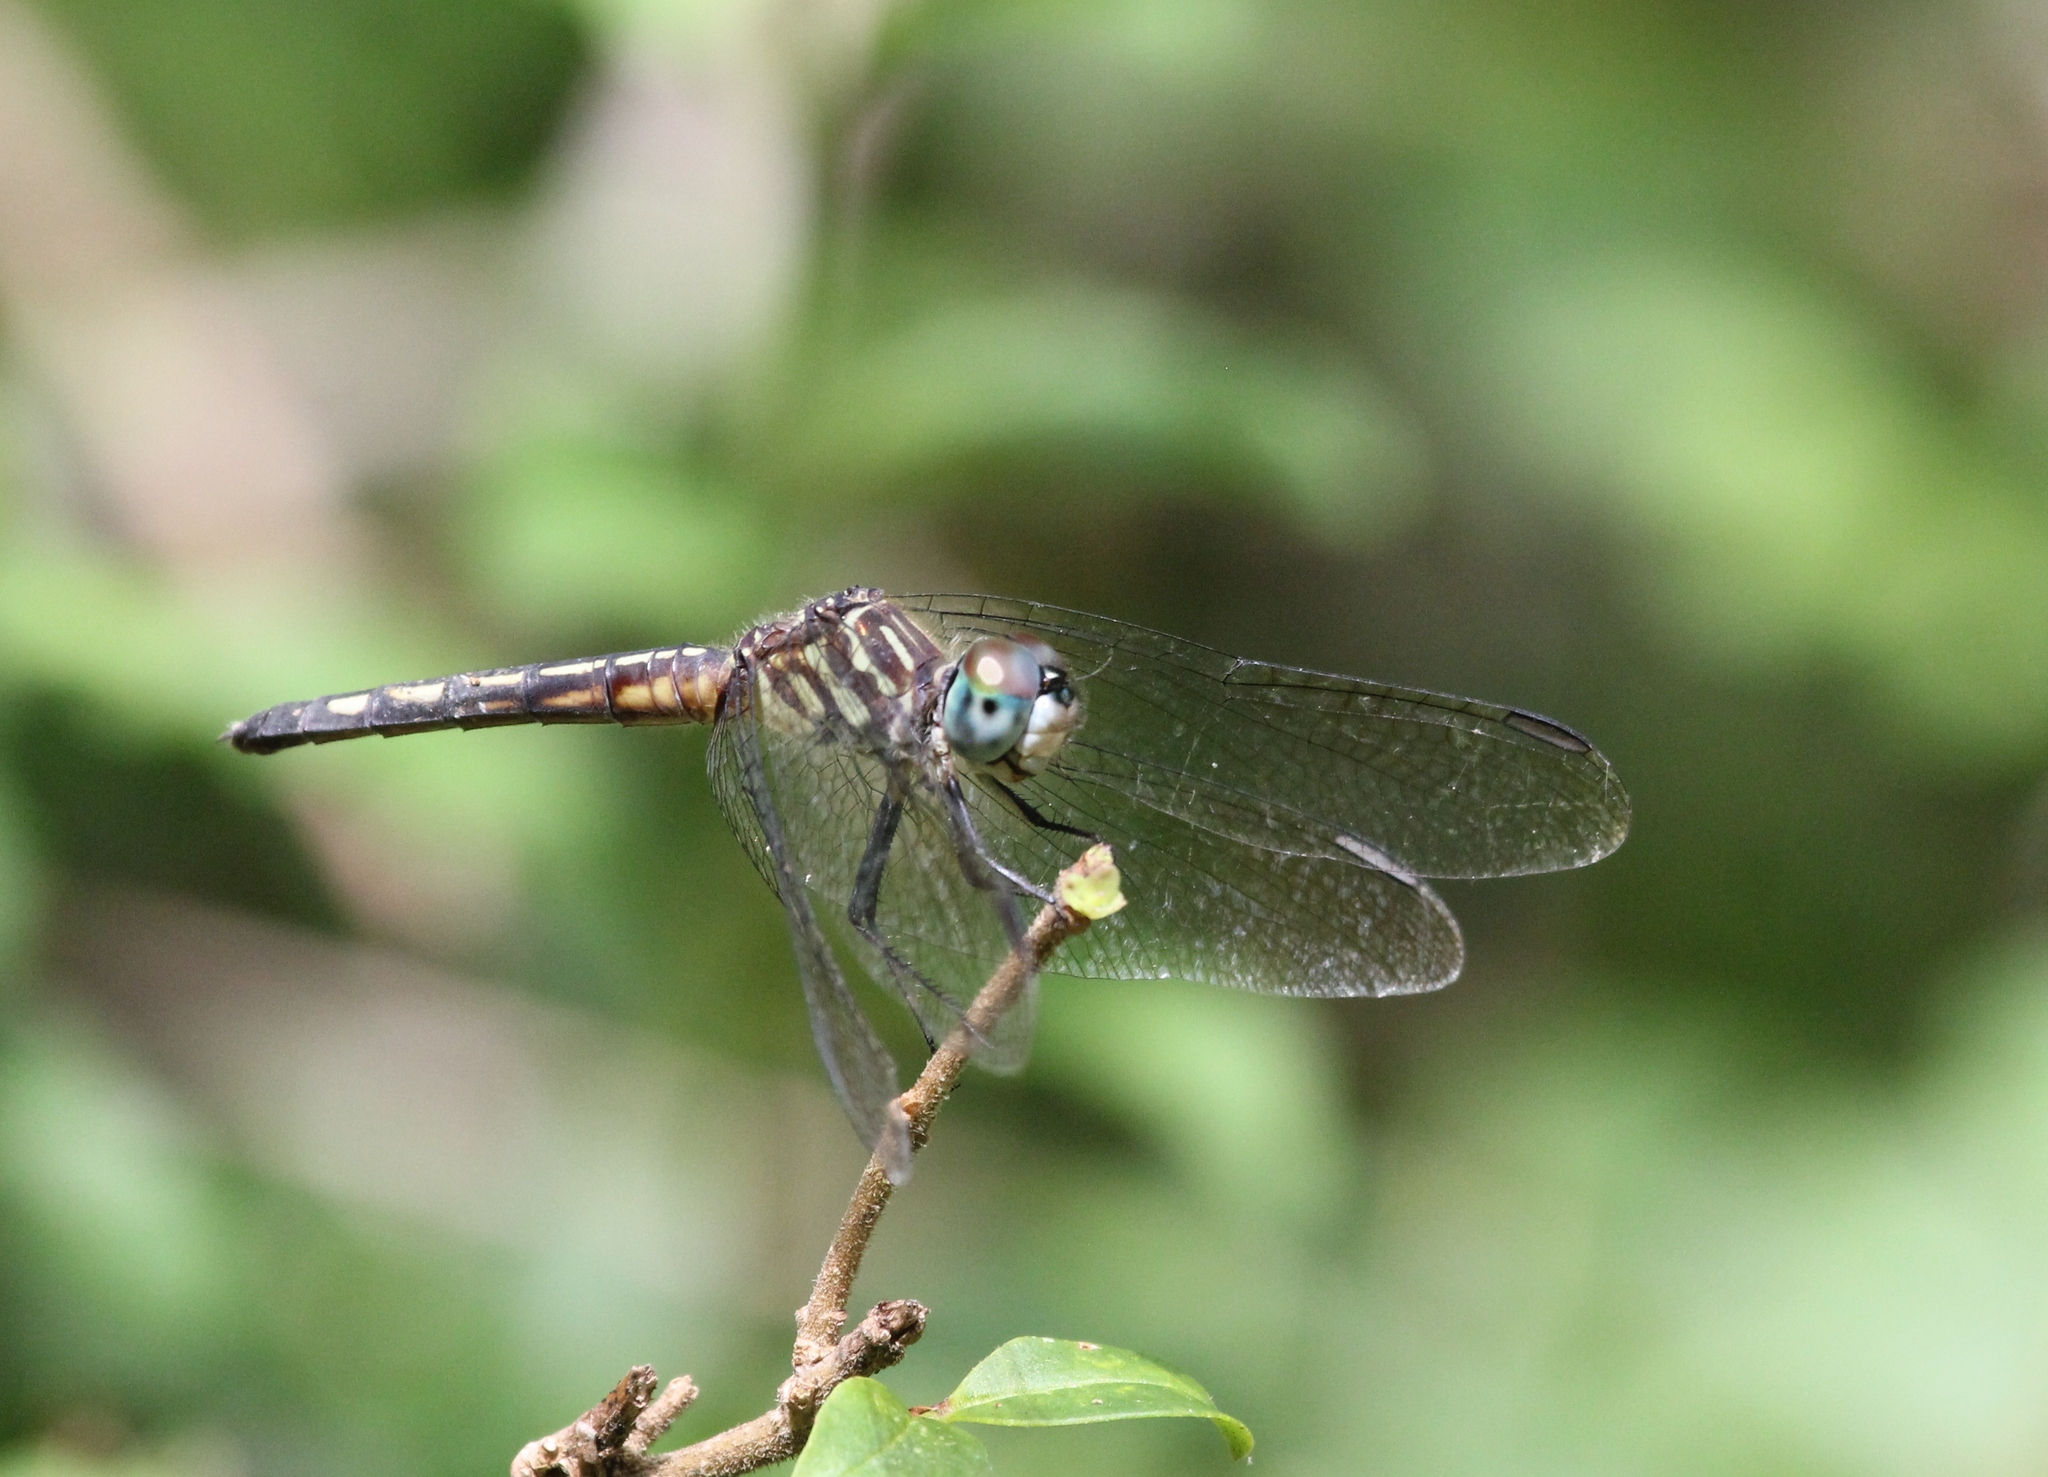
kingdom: Animalia
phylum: Arthropoda
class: Insecta
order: Odonata
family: Libellulidae
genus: Pachydiplax
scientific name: Pachydiplax longipennis
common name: Blue dasher
